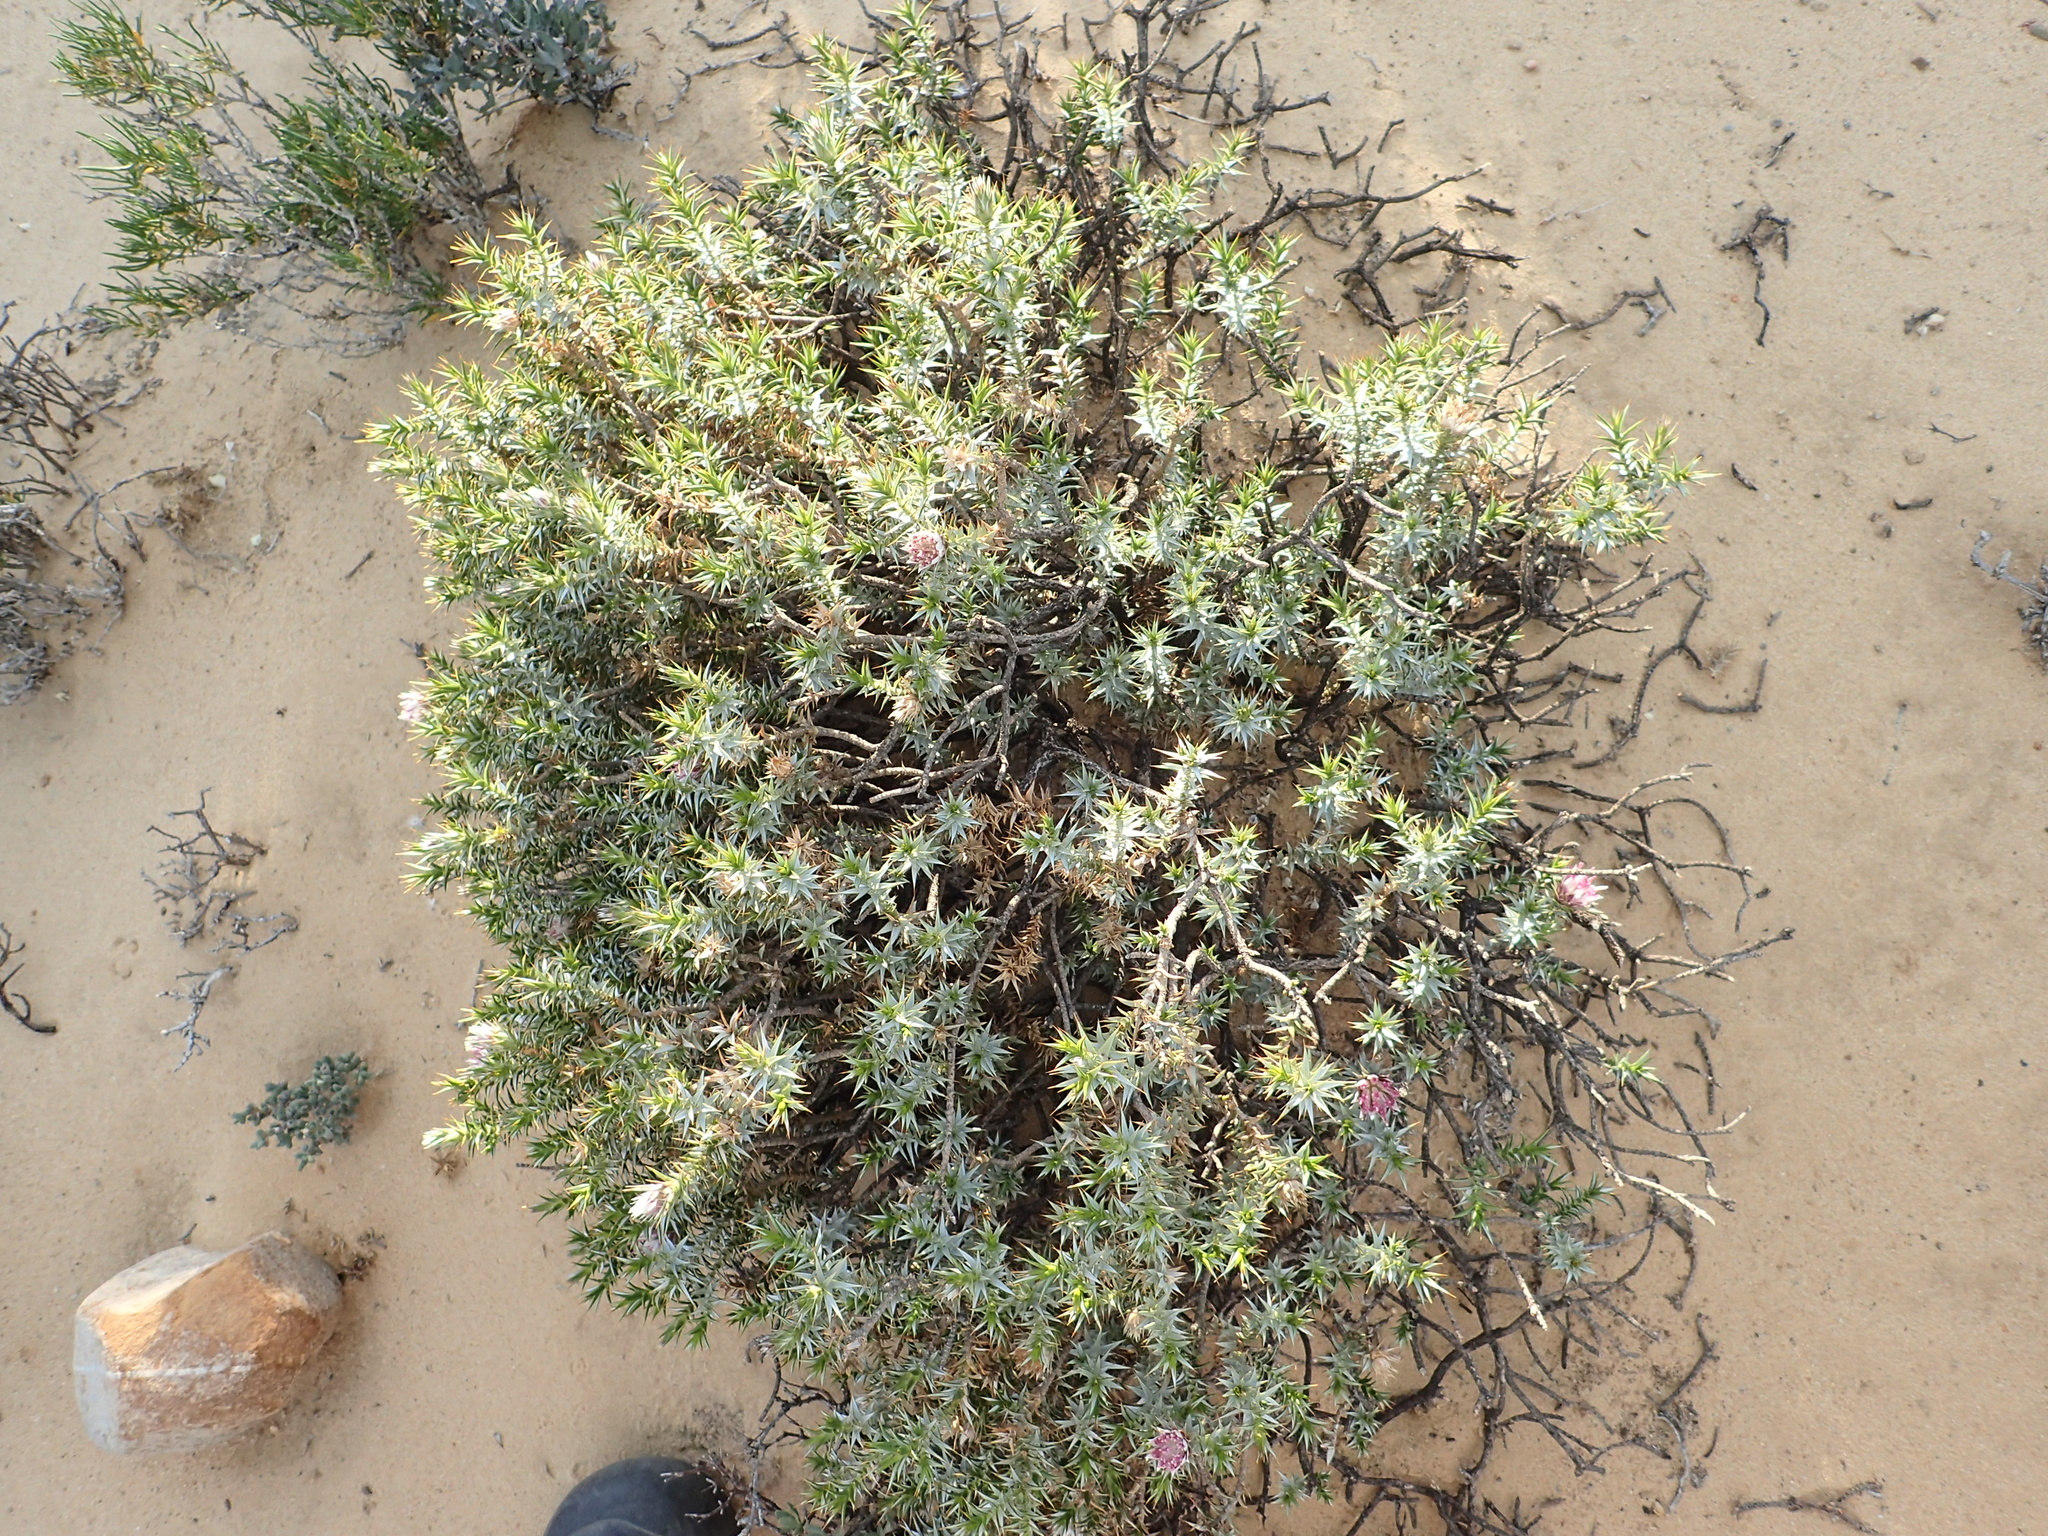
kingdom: Plantae
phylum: Tracheophyta
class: Magnoliopsida
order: Asterales
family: Asteraceae
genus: Macledium
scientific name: Macledium relhanioides
